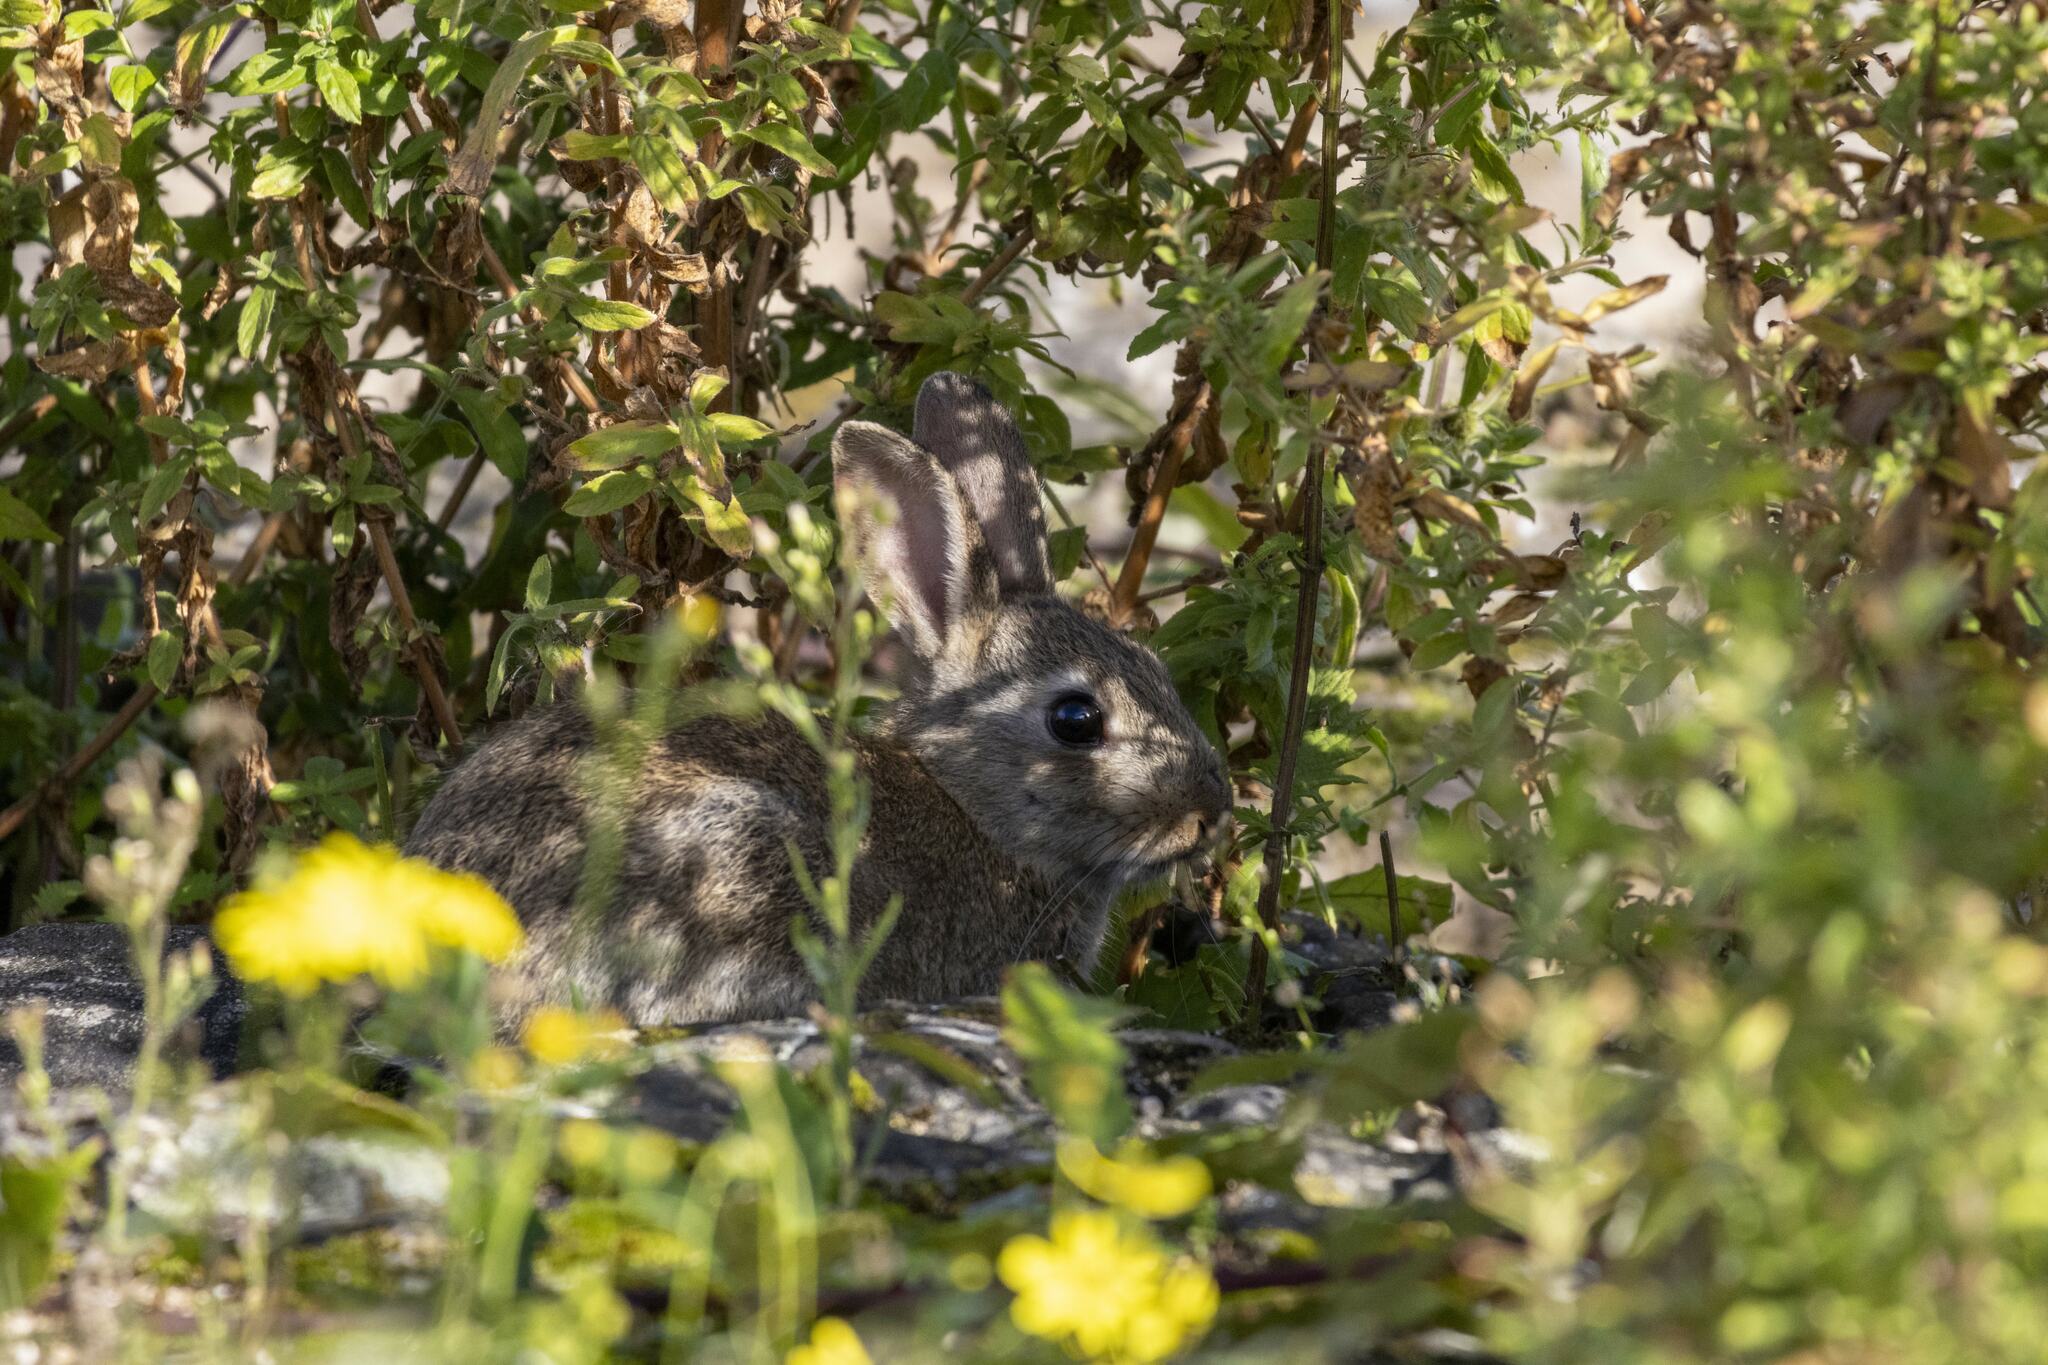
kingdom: Animalia
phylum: Chordata
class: Mammalia
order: Lagomorpha
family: Leporidae
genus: Oryctolagus
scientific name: Oryctolagus cuniculus
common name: European rabbit
